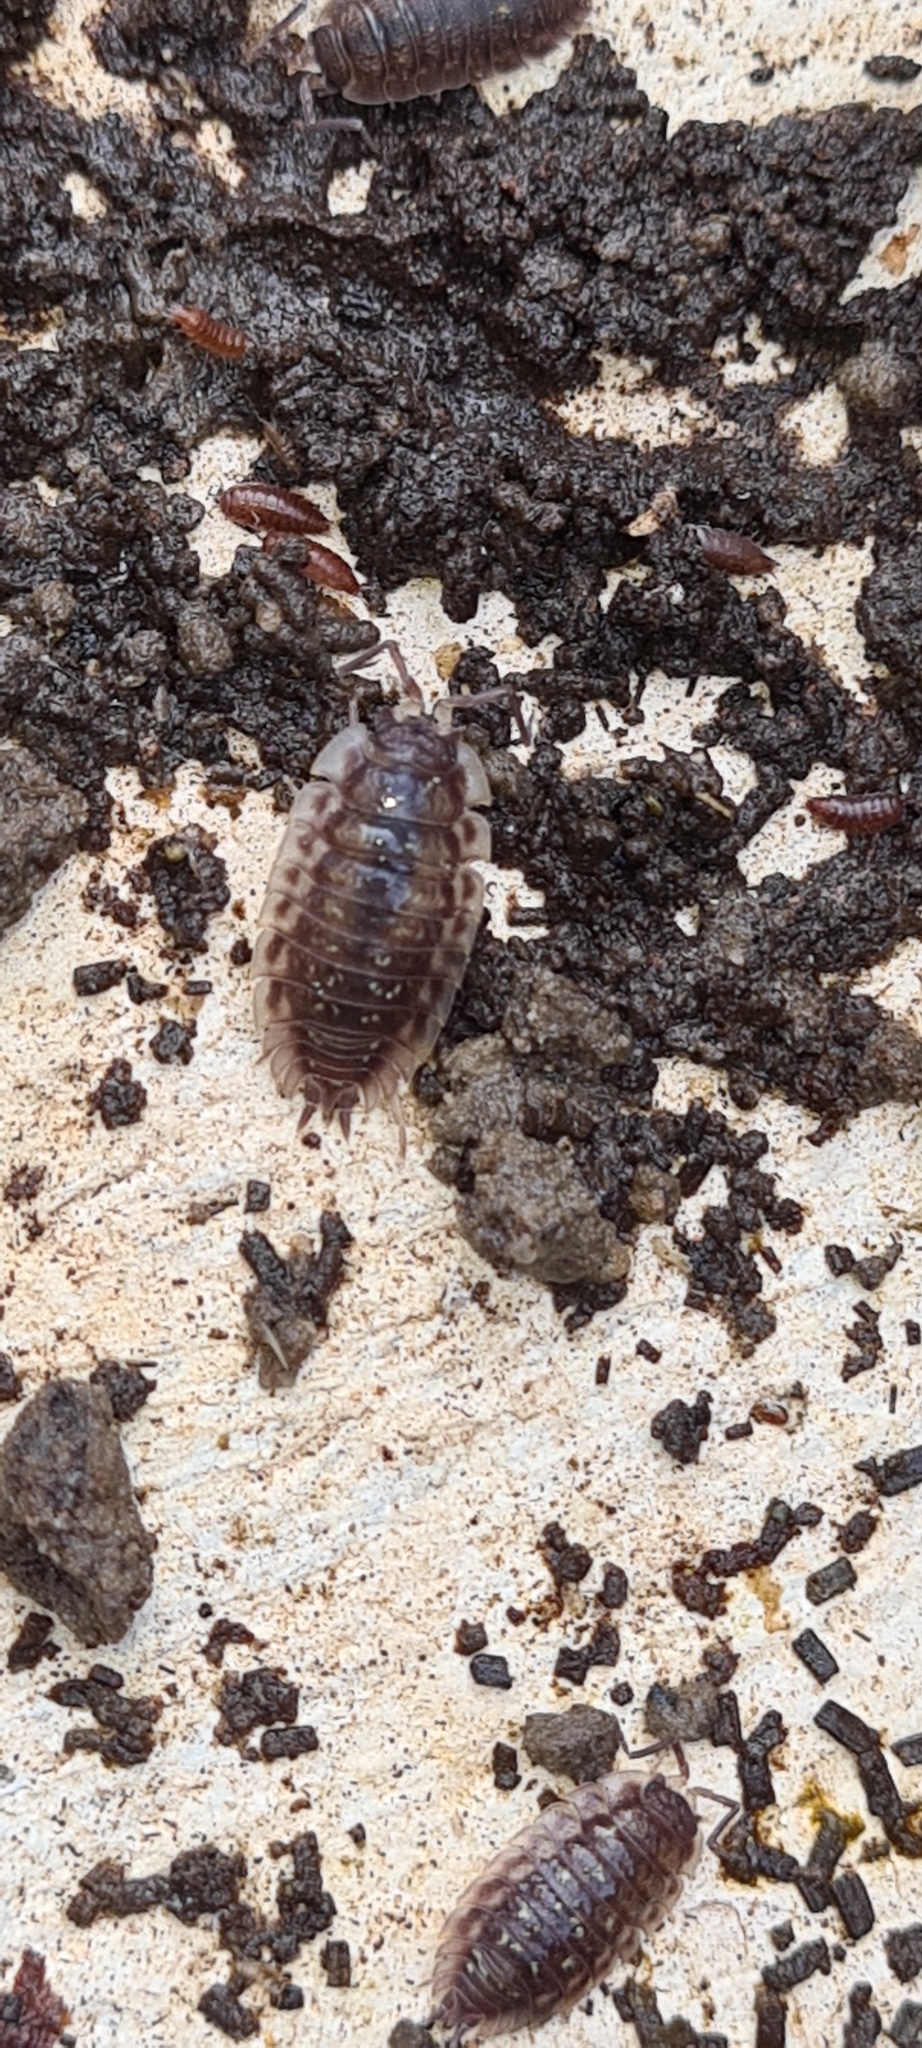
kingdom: Animalia
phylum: Arthropoda
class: Malacostraca
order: Isopoda
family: Oniscidae
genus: Oniscus
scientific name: Oniscus asellus
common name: Common shiny woodlouse
